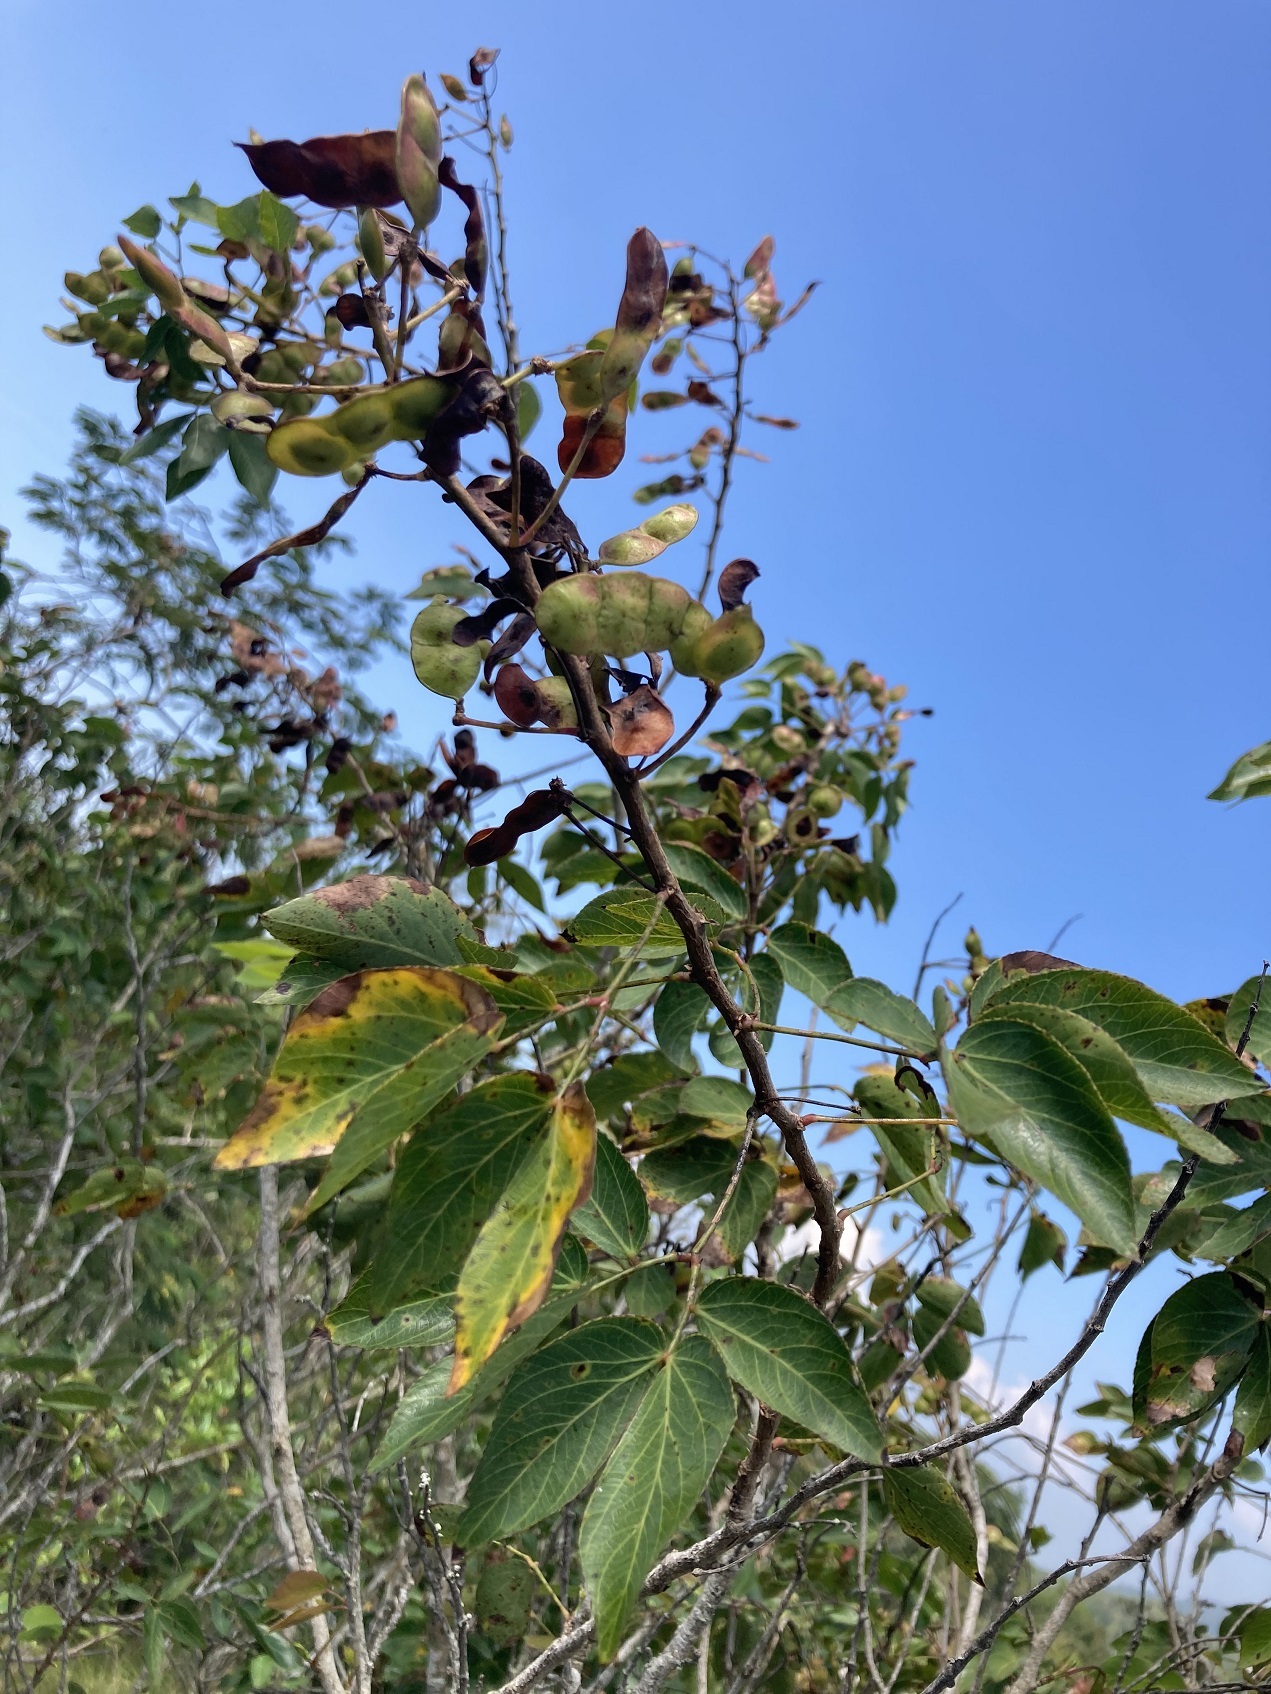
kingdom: Plantae
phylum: Tracheophyta
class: Magnoliopsida
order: Fabales
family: Fabaceae
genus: Mimosa
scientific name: Mimosa lactiflua
